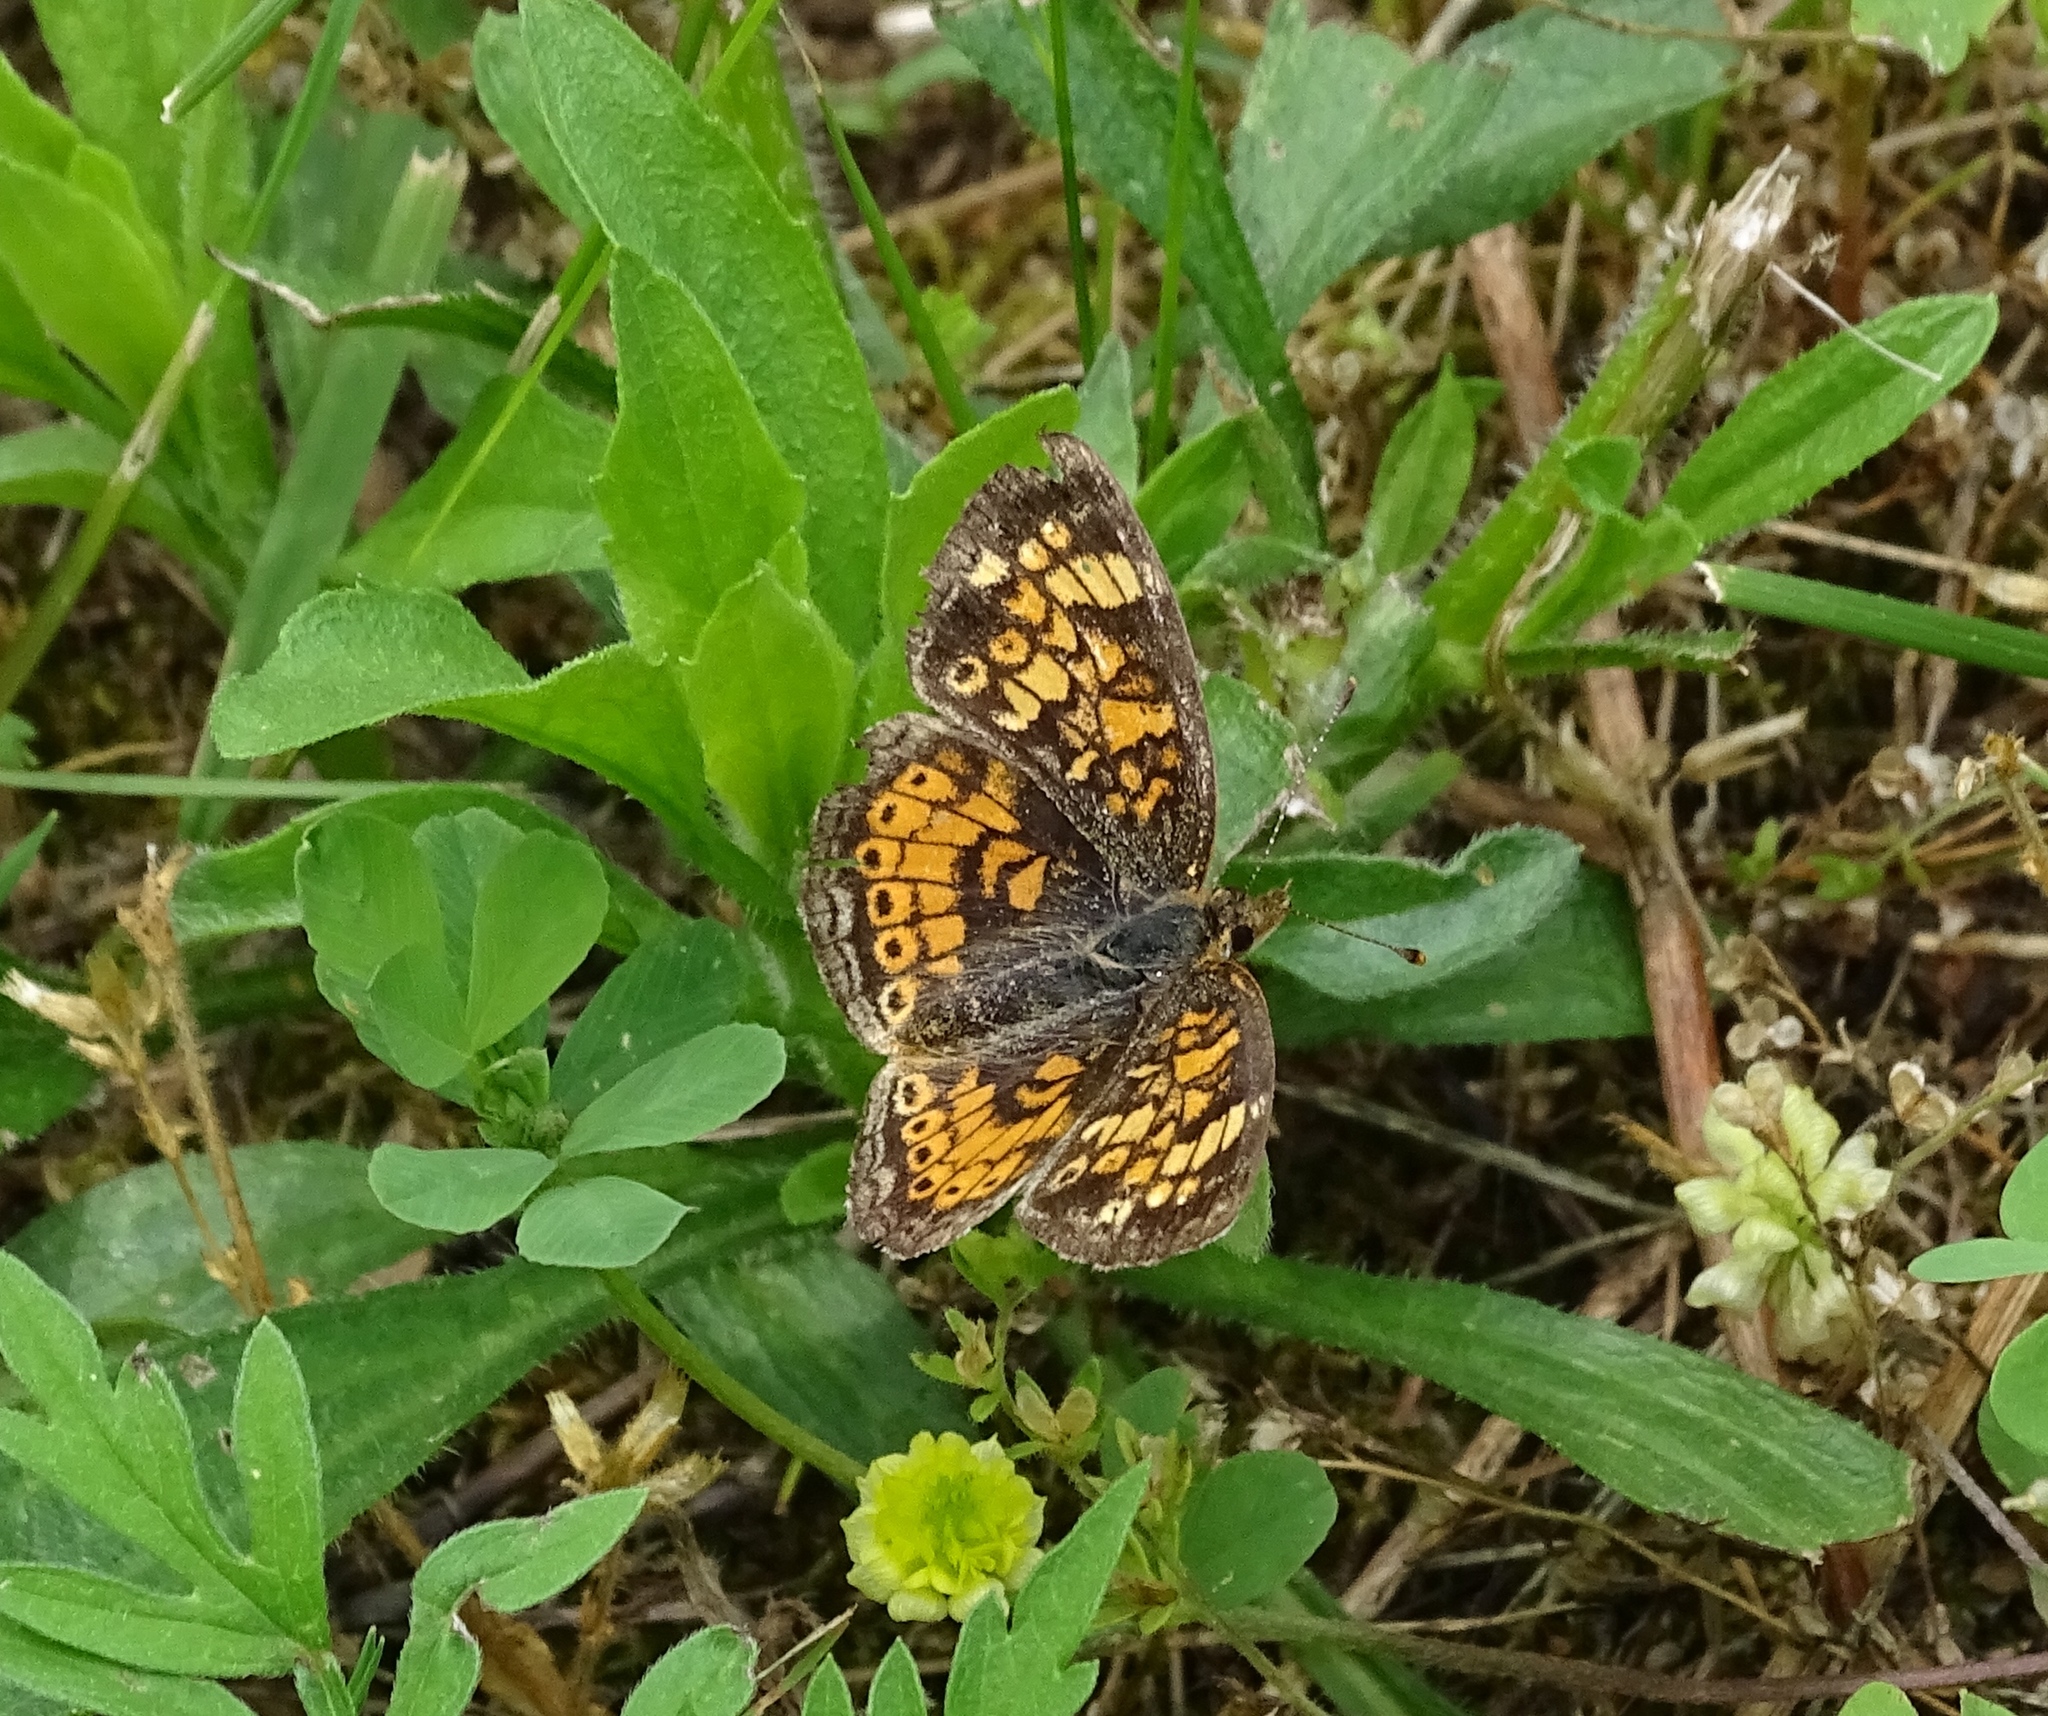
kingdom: Animalia
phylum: Arthropoda
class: Insecta
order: Lepidoptera
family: Nymphalidae
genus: Phyciodes
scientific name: Phyciodes tharos
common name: Pearl crescent
